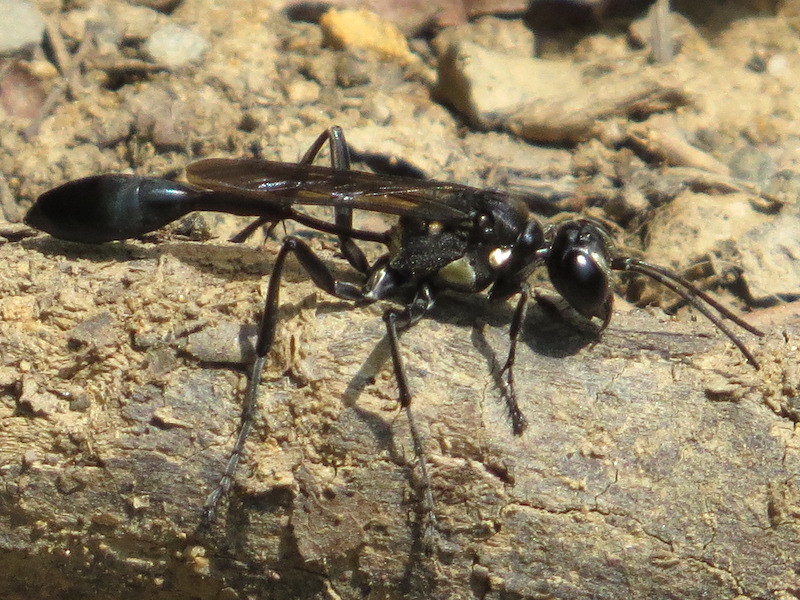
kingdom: Animalia
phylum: Arthropoda
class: Insecta
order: Hymenoptera
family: Sphecidae
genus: Eremnophila
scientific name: Eremnophila aureonotata
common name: Gold-marked thread-waisted wasp
